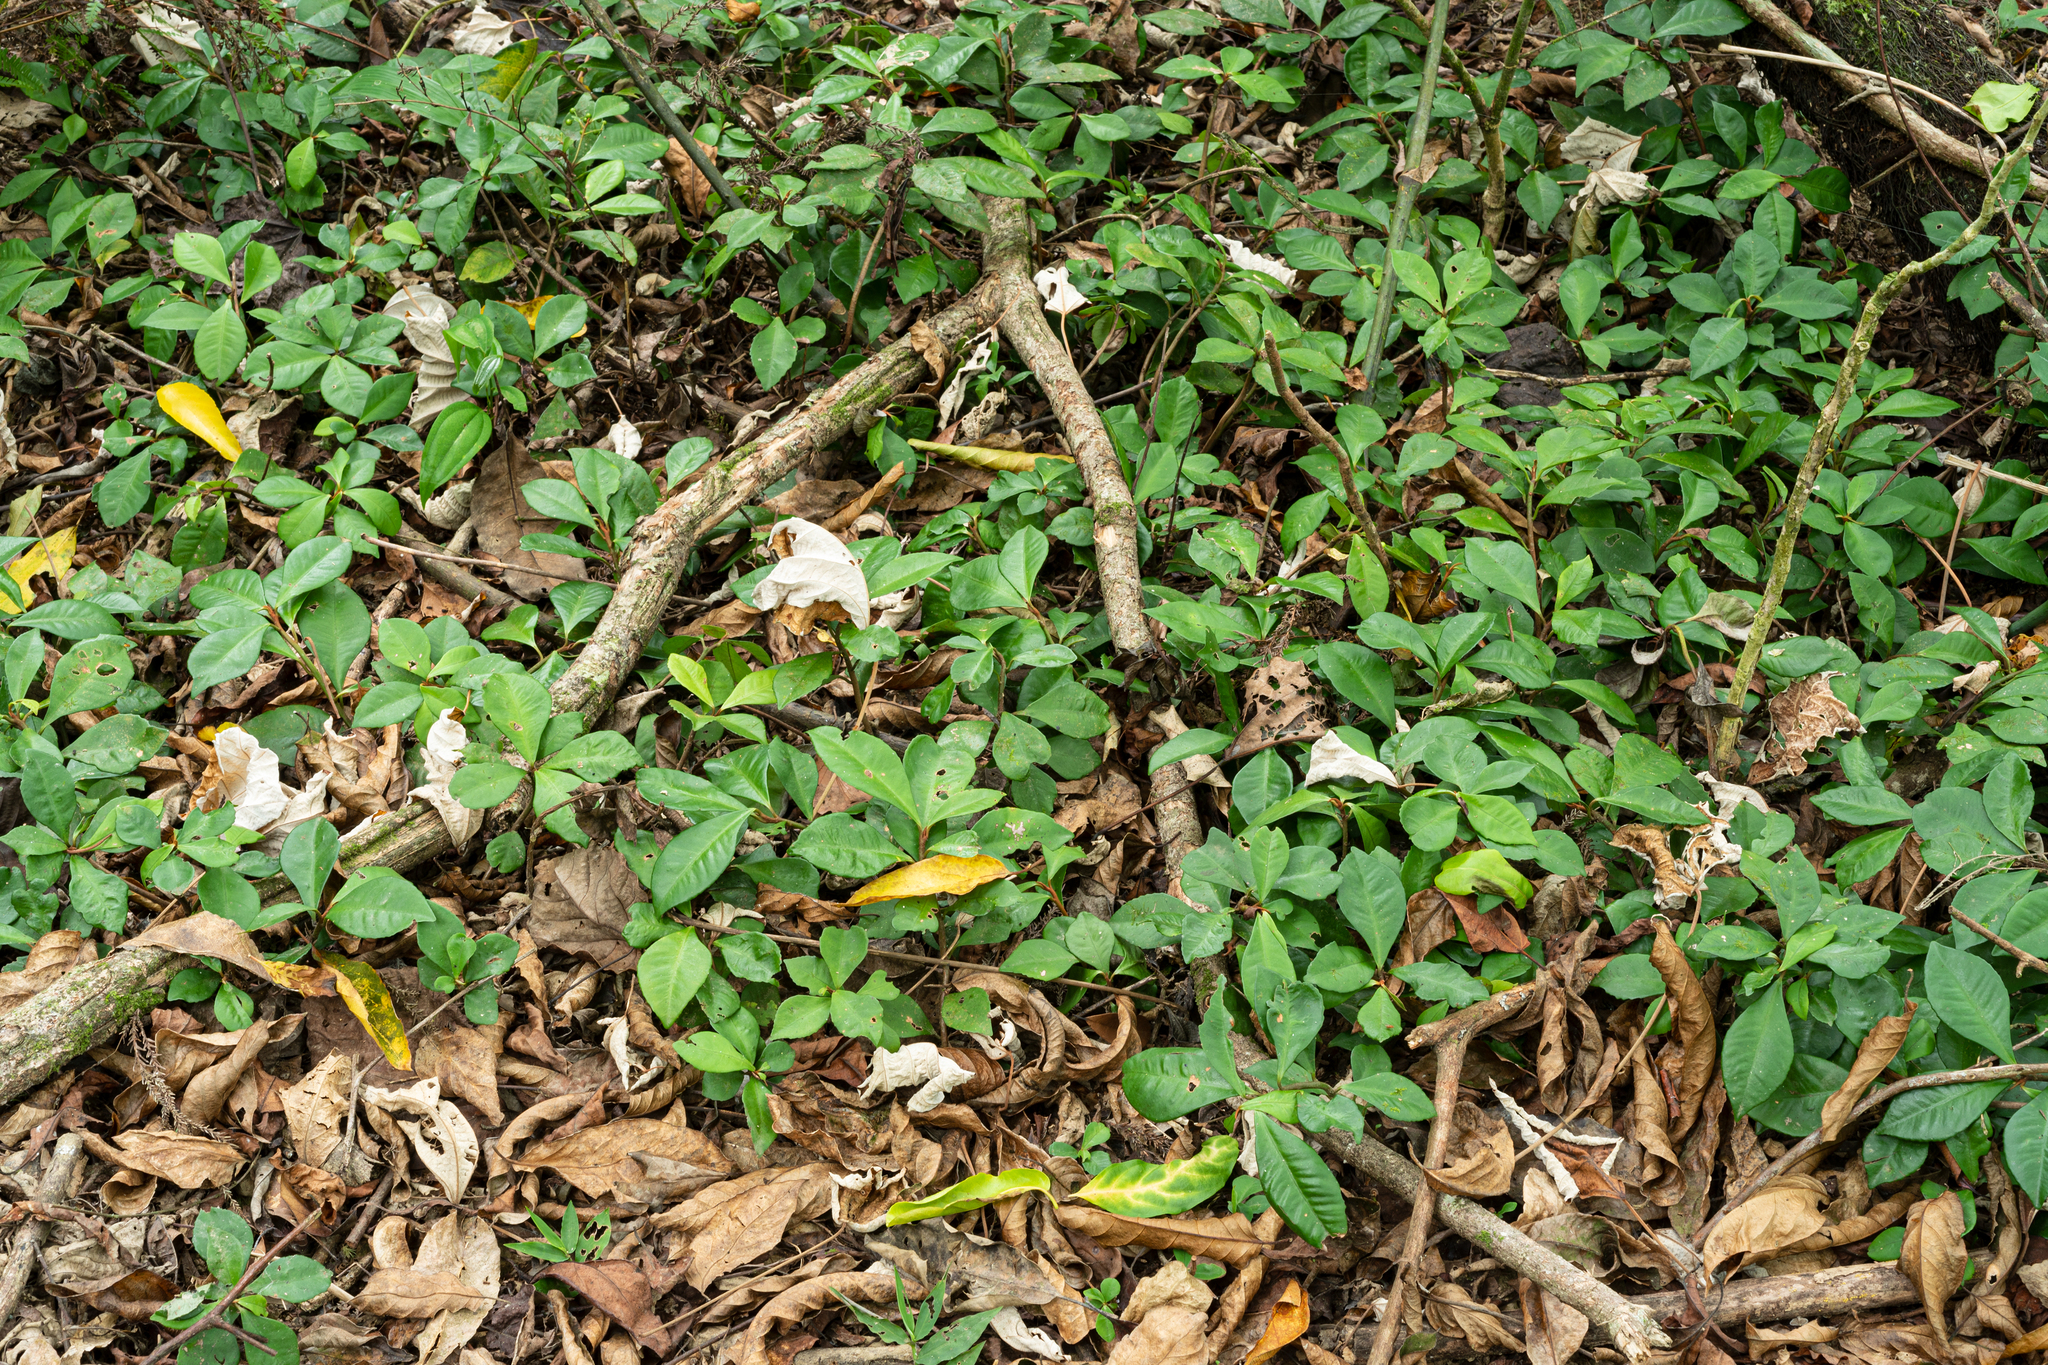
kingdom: Plantae
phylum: Tracheophyta
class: Magnoliopsida
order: Ericales
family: Primulaceae
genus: Ardisia
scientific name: Ardisia cymosa
